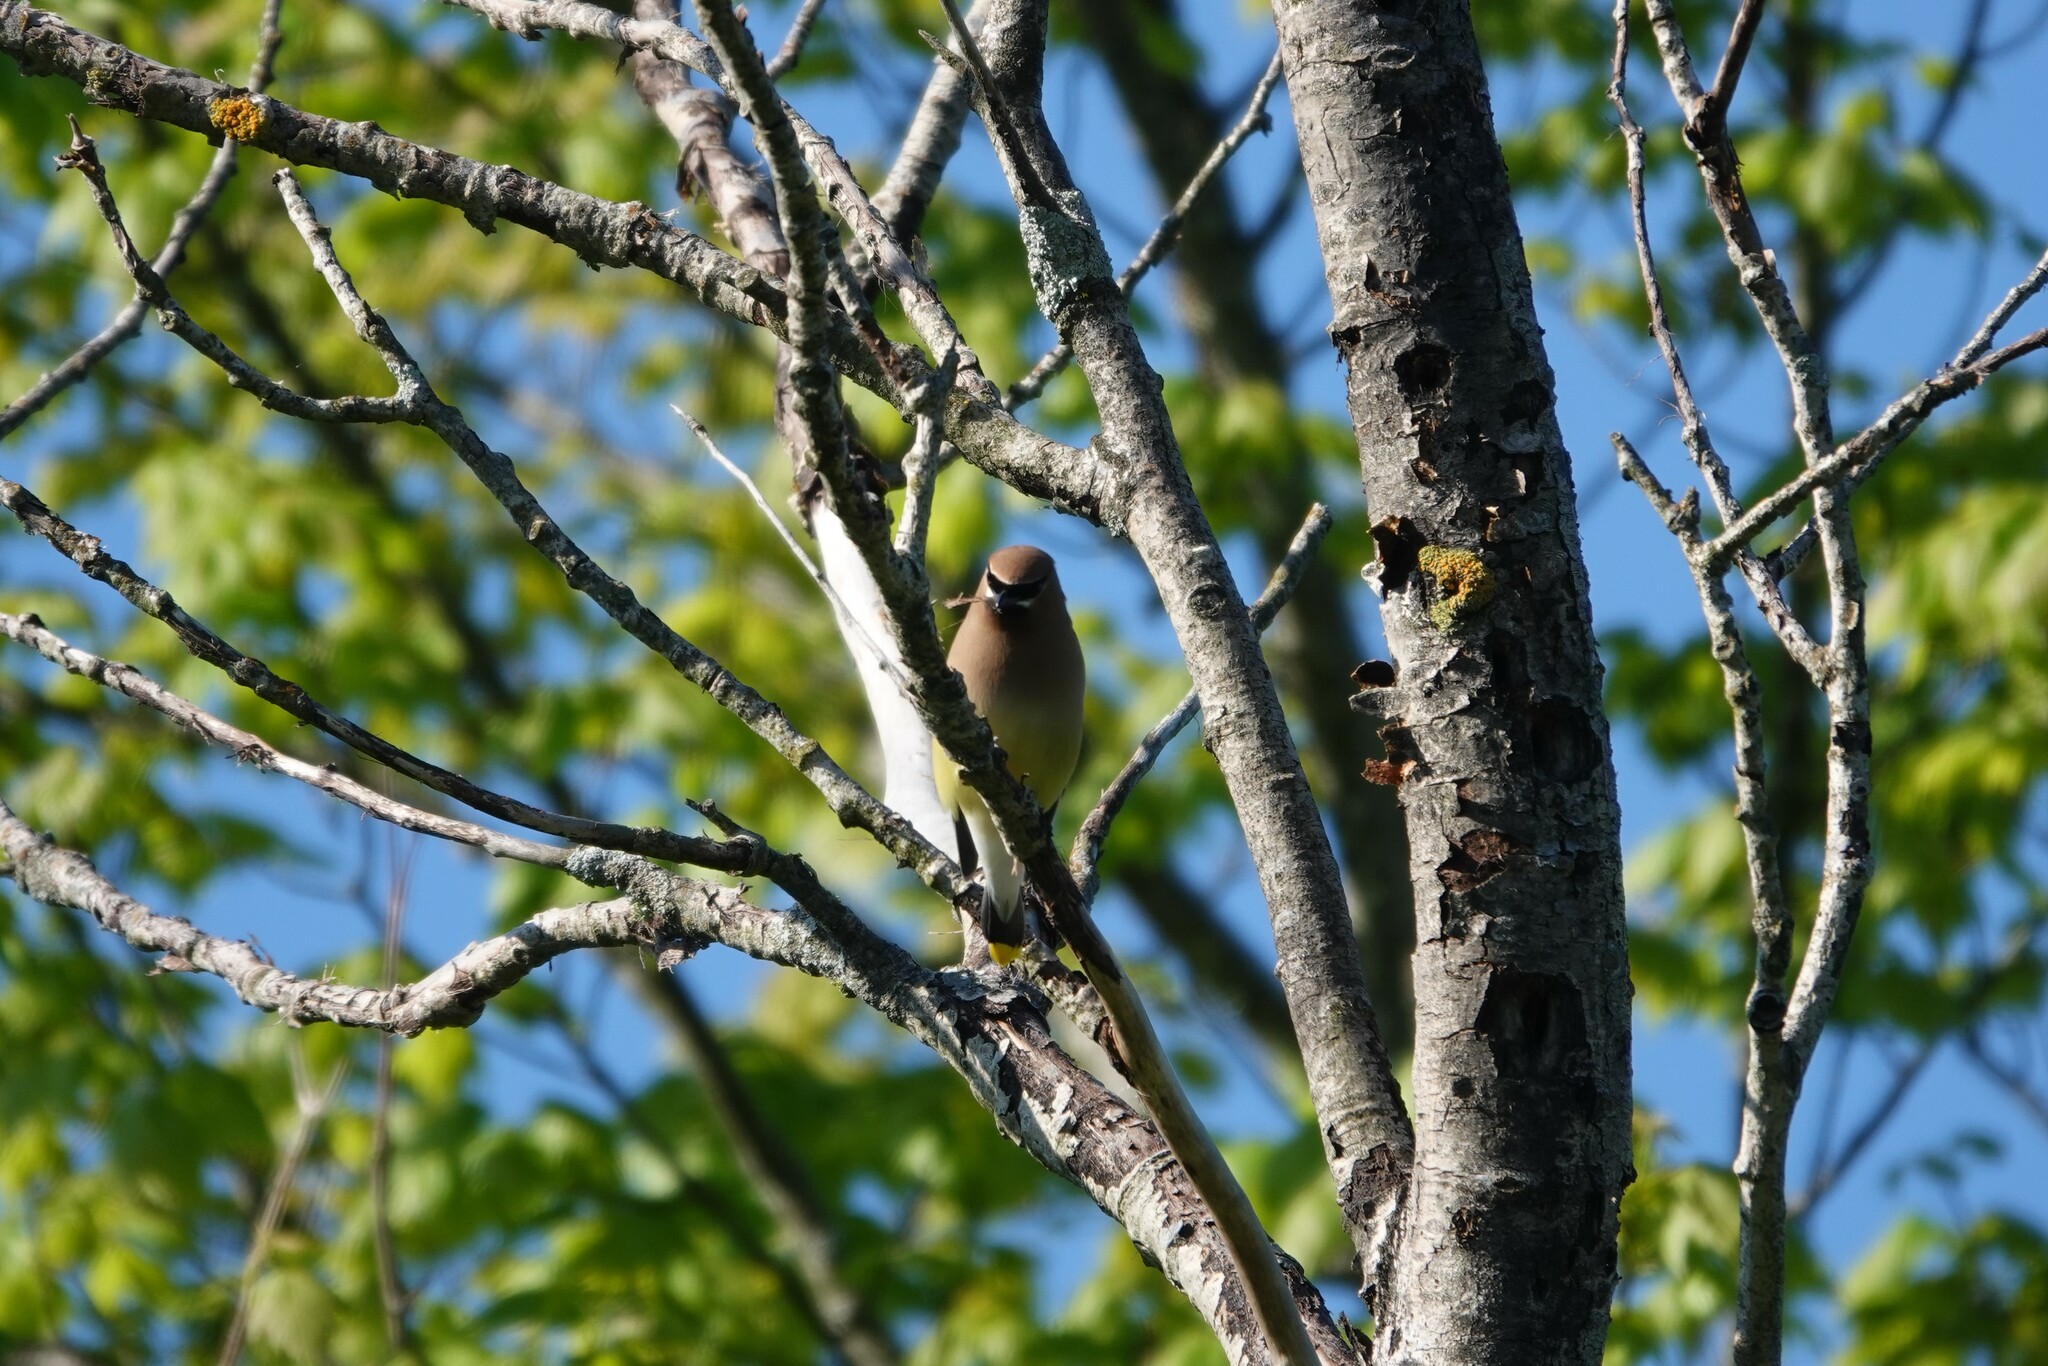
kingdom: Animalia
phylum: Chordata
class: Aves
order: Passeriformes
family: Bombycillidae
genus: Bombycilla
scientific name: Bombycilla cedrorum
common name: Cedar waxwing
